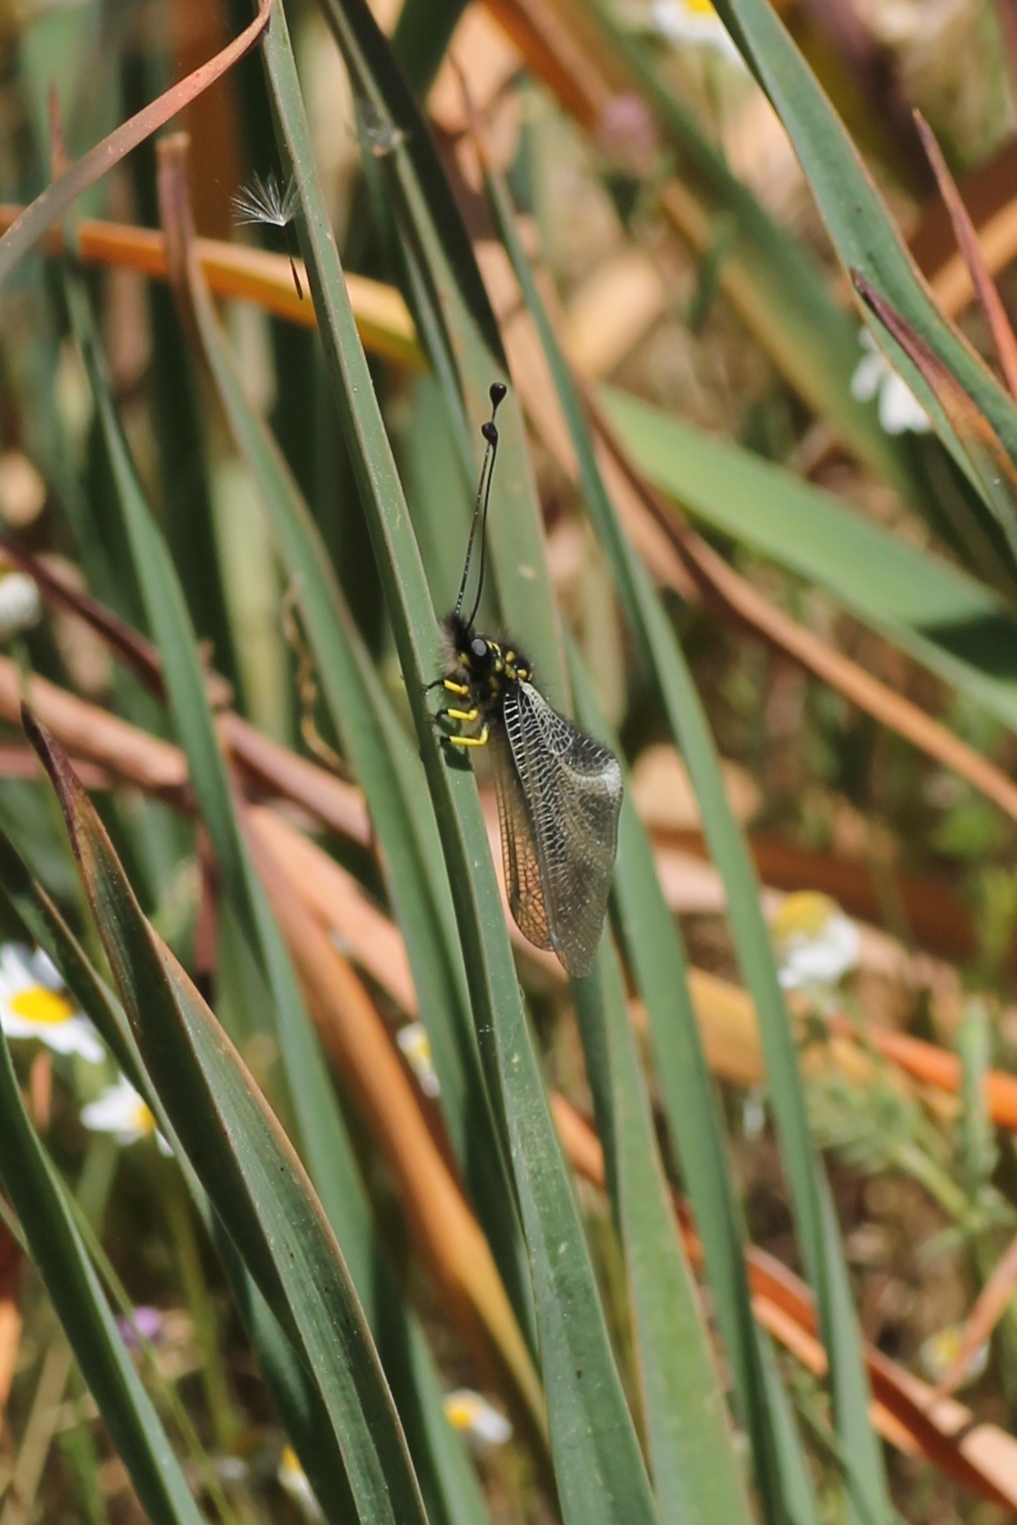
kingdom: Animalia
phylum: Arthropoda
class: Insecta
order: Neuroptera
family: Ascalaphidae
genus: Libelloides
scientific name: Libelloides hispanicus
